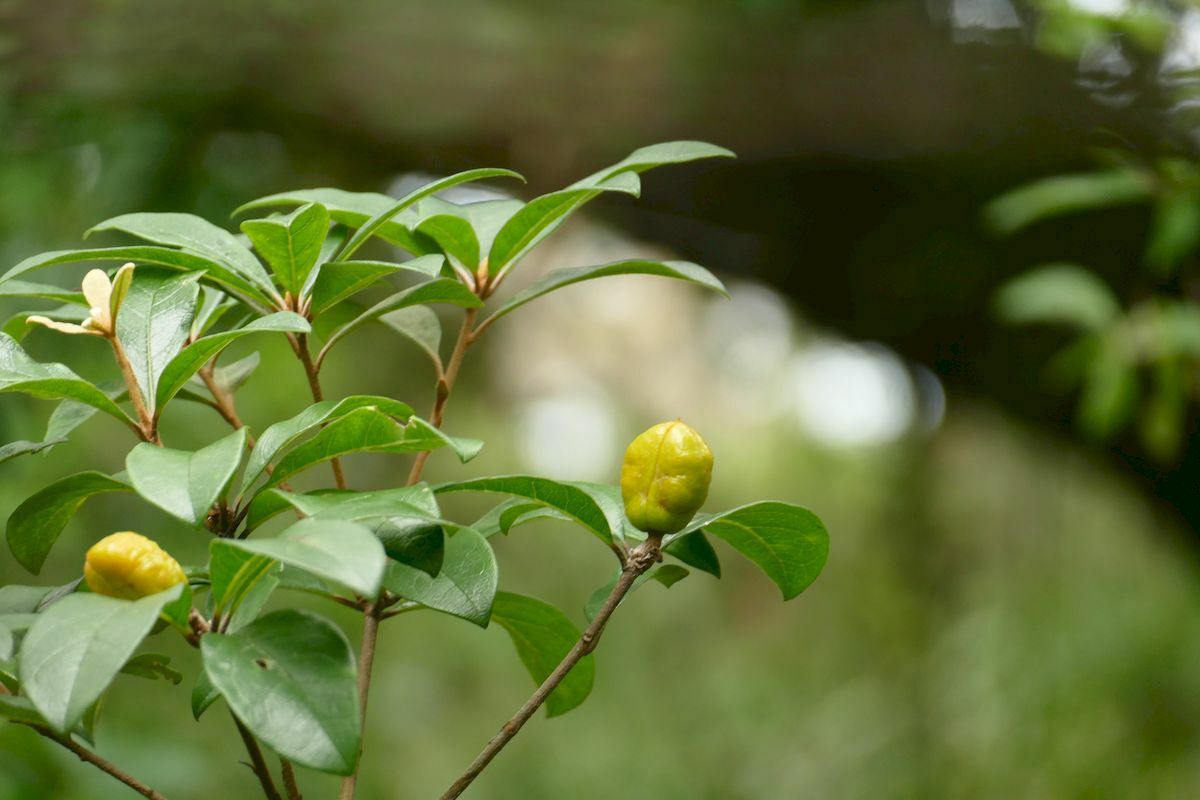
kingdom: Plantae
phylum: Tracheophyta
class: Magnoliopsida
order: Apiales
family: Pittosporaceae
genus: Pittosporum
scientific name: Pittosporum revolutum
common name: Brisbane-laurel
